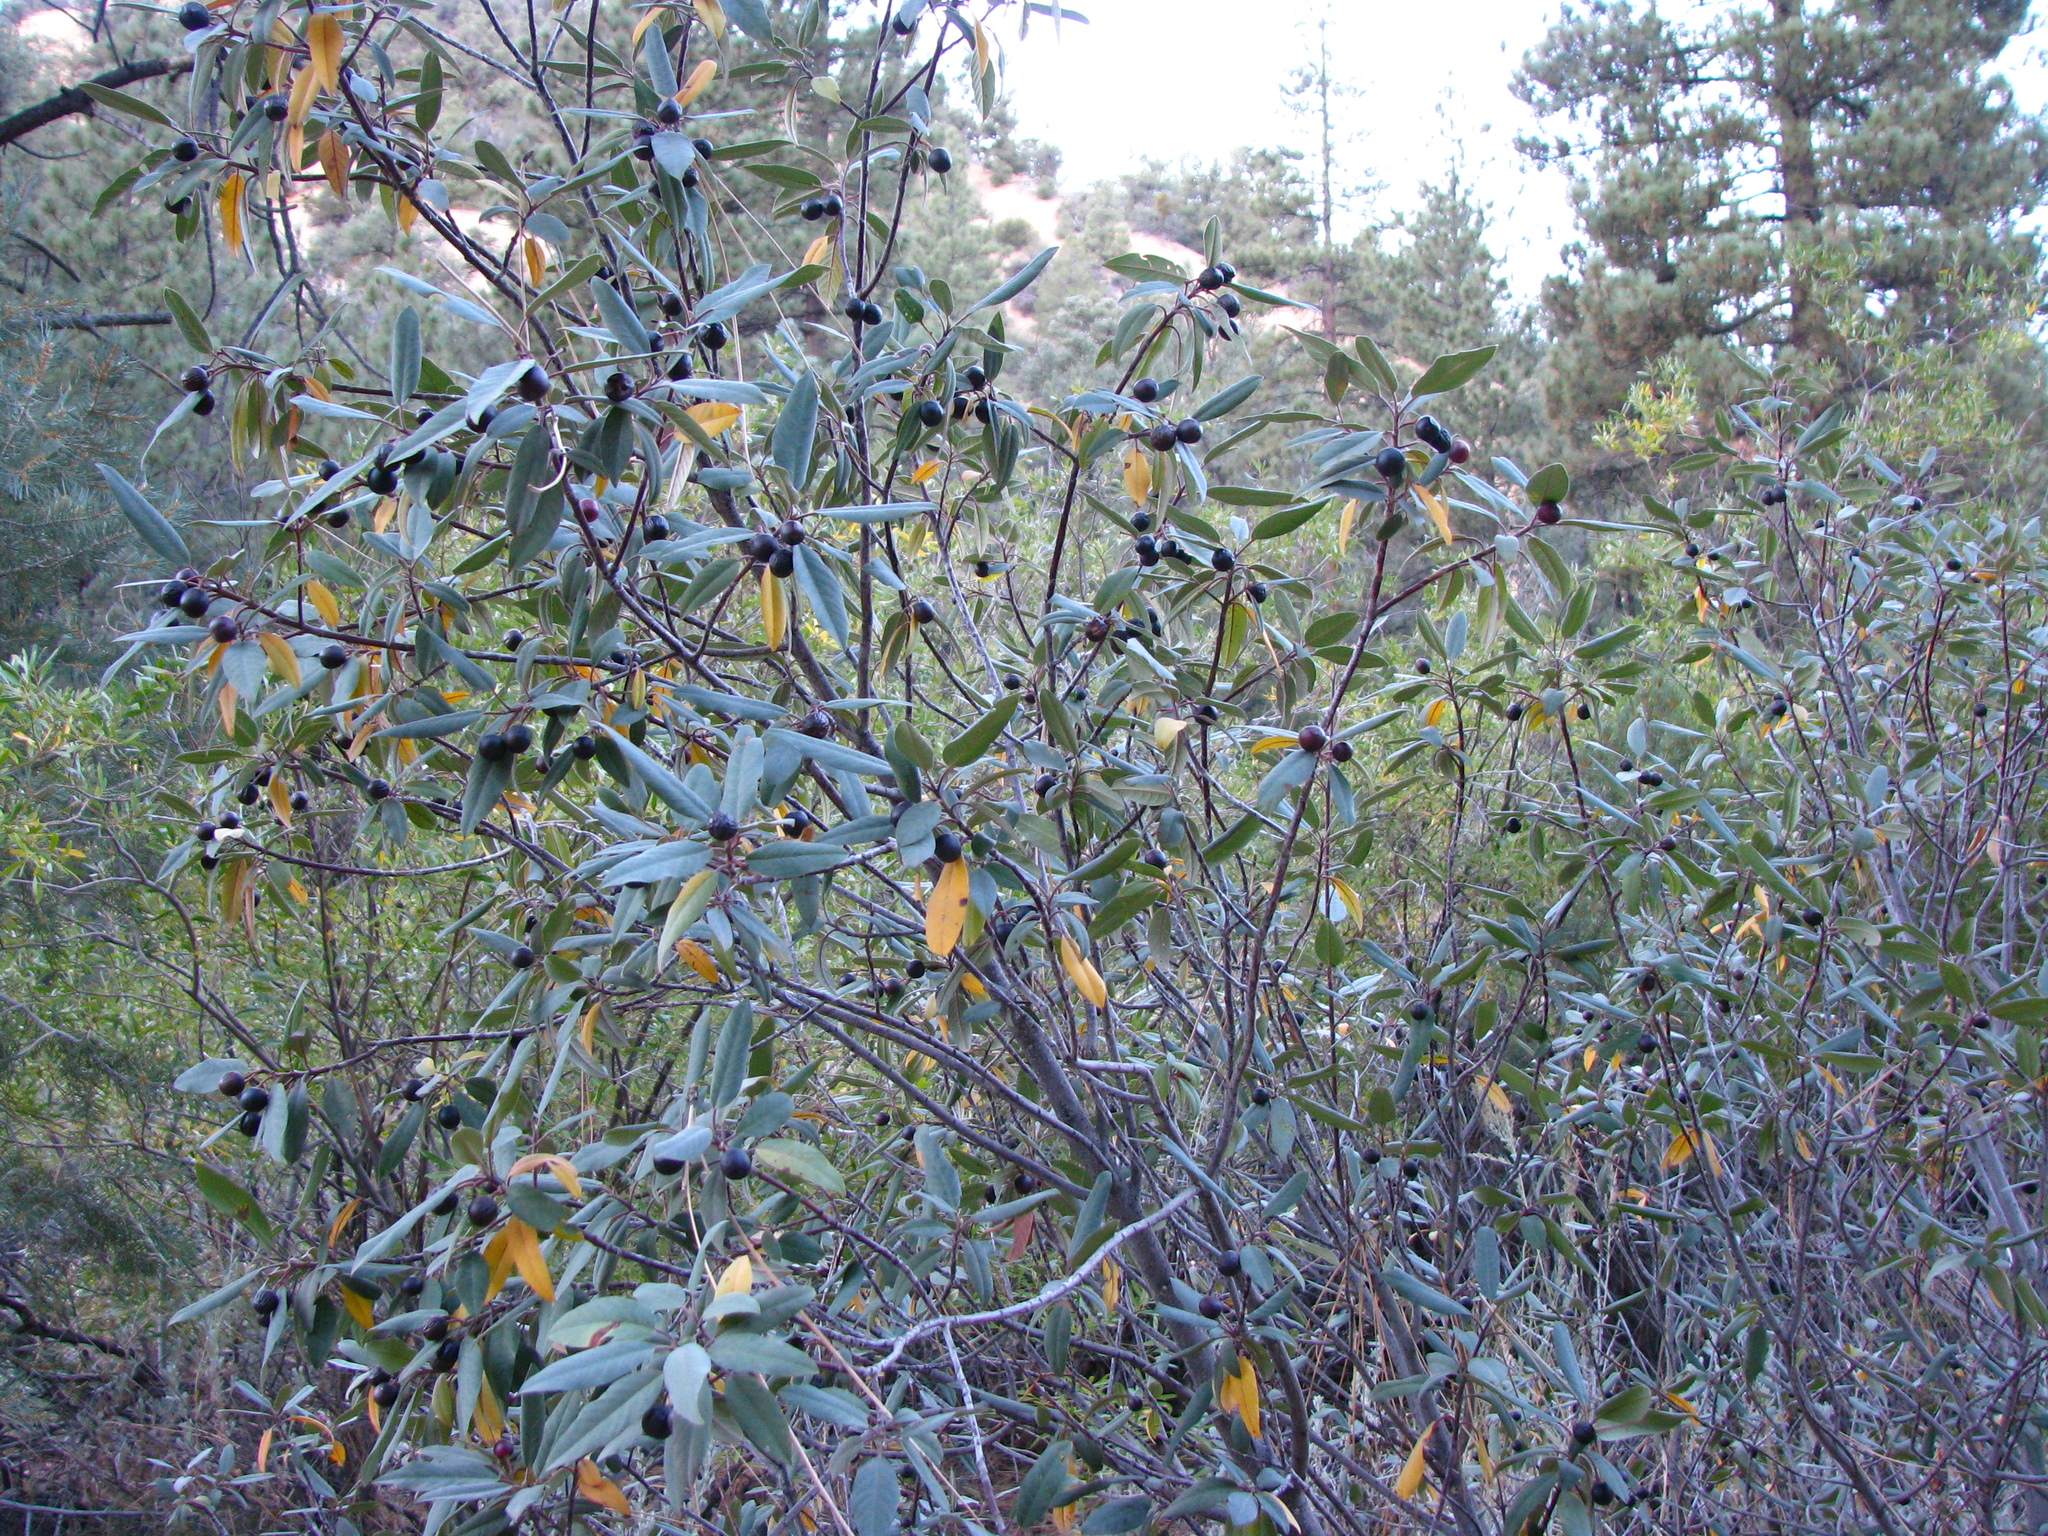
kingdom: Plantae
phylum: Tracheophyta
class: Magnoliopsida
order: Rosales
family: Rhamnaceae
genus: Frangula
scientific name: Frangula californica
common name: California buckthorn
